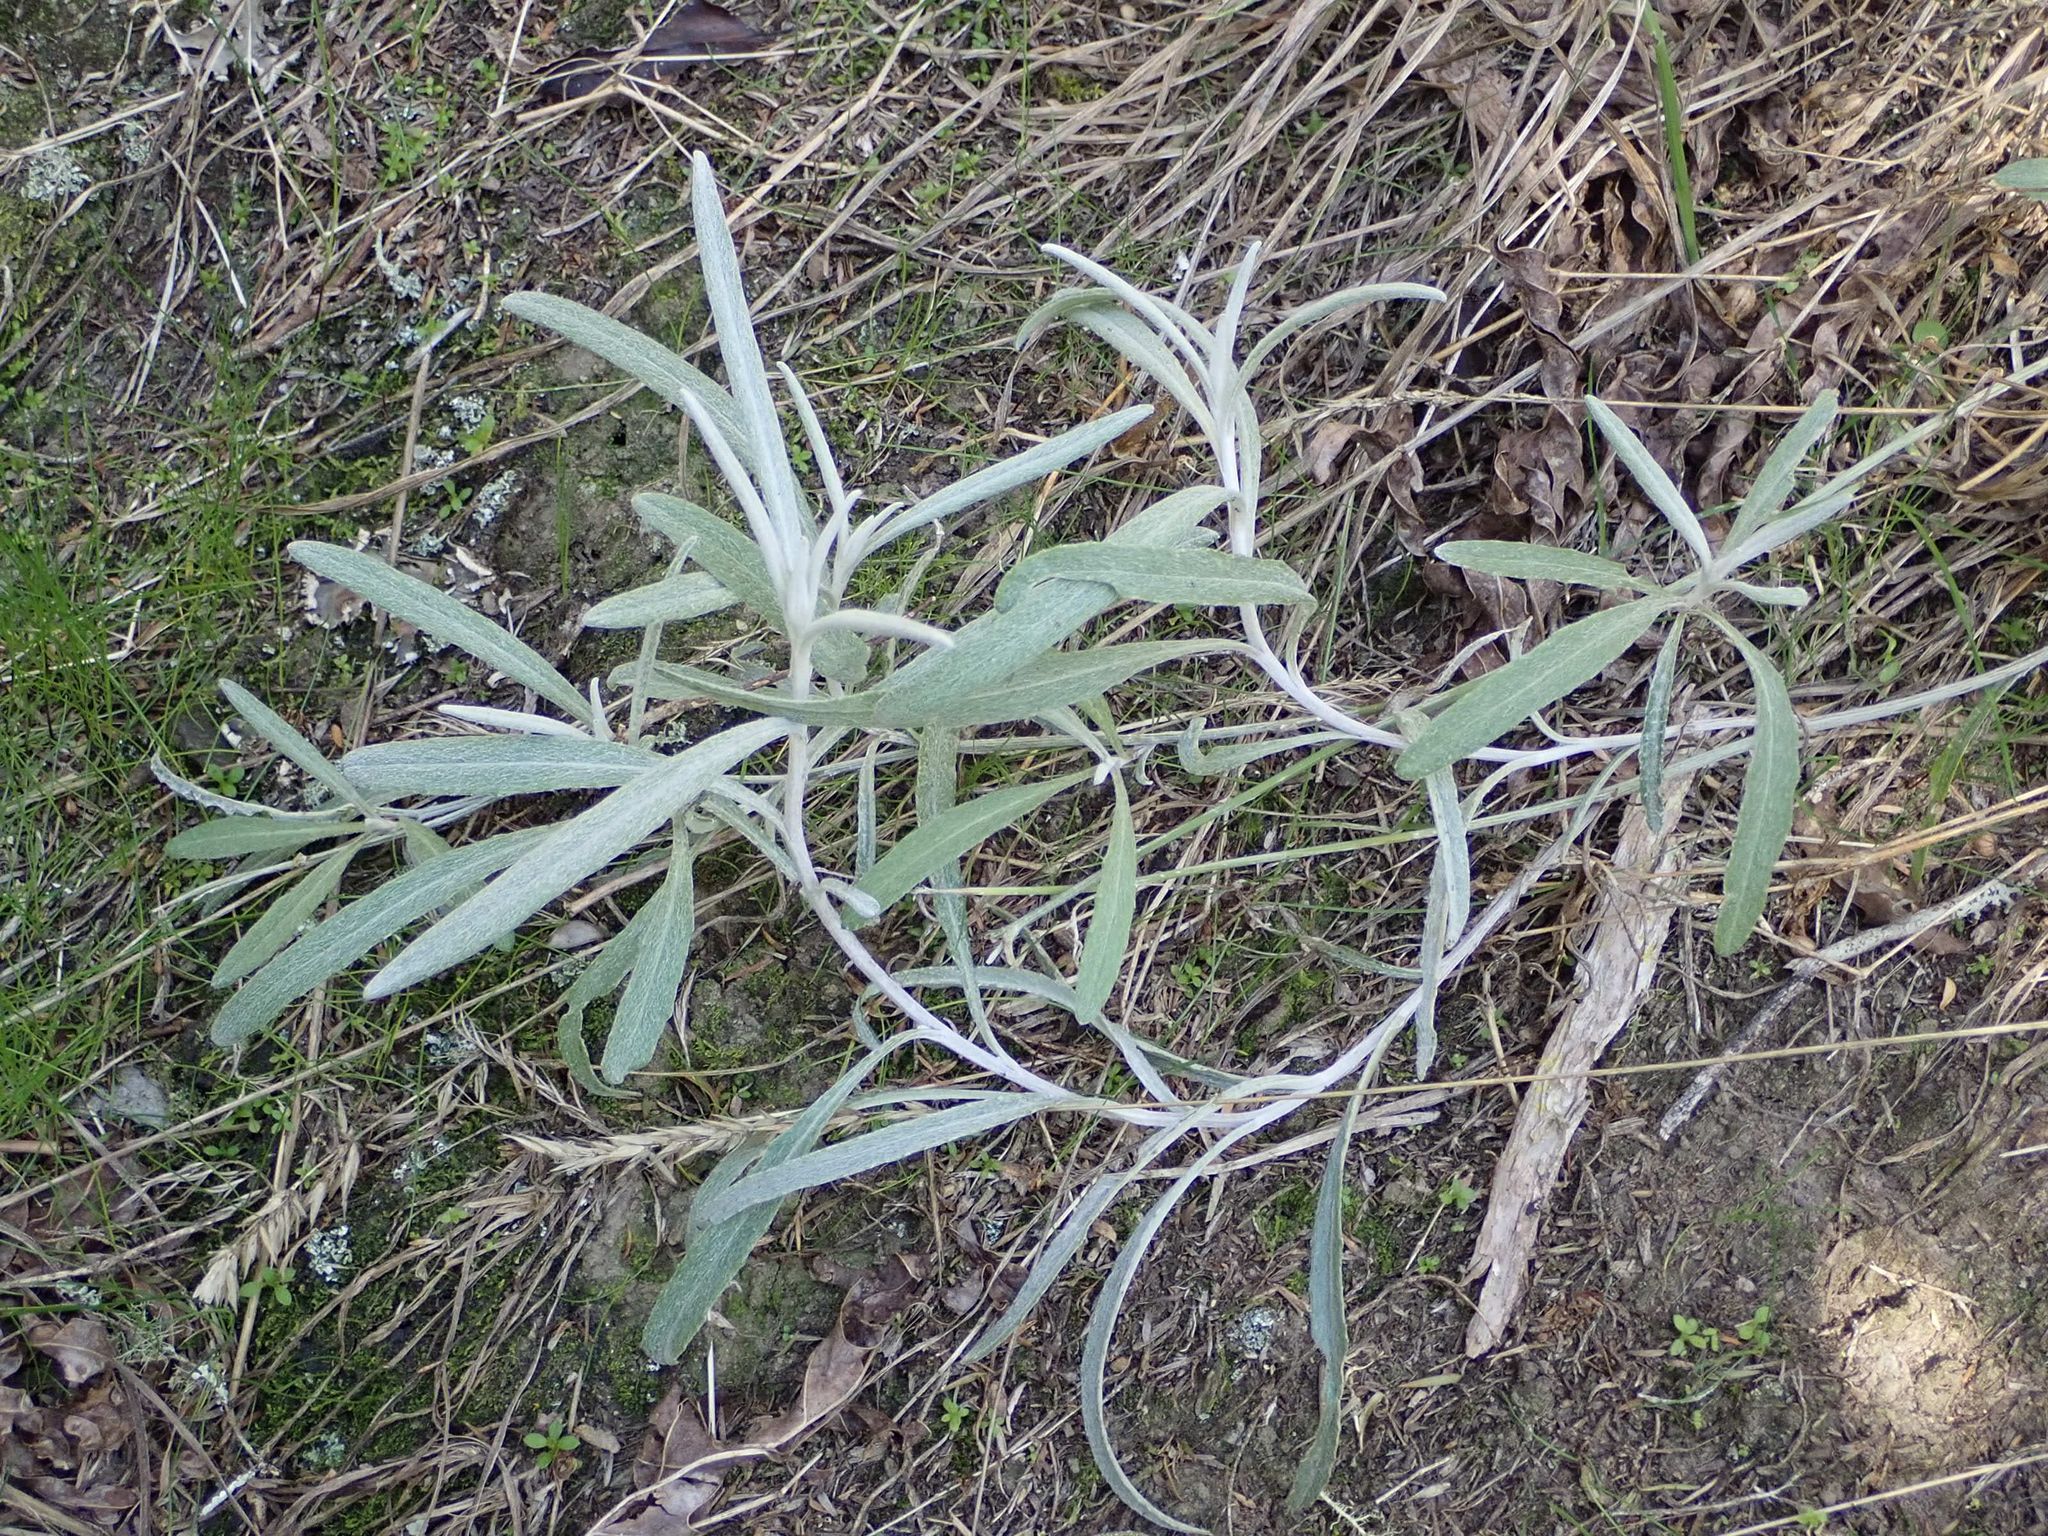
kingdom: Plantae
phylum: Tracheophyta
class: Magnoliopsida
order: Asterales
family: Asteraceae
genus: Senecio
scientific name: Senecio quadridentatus
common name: Cotton fireweed
